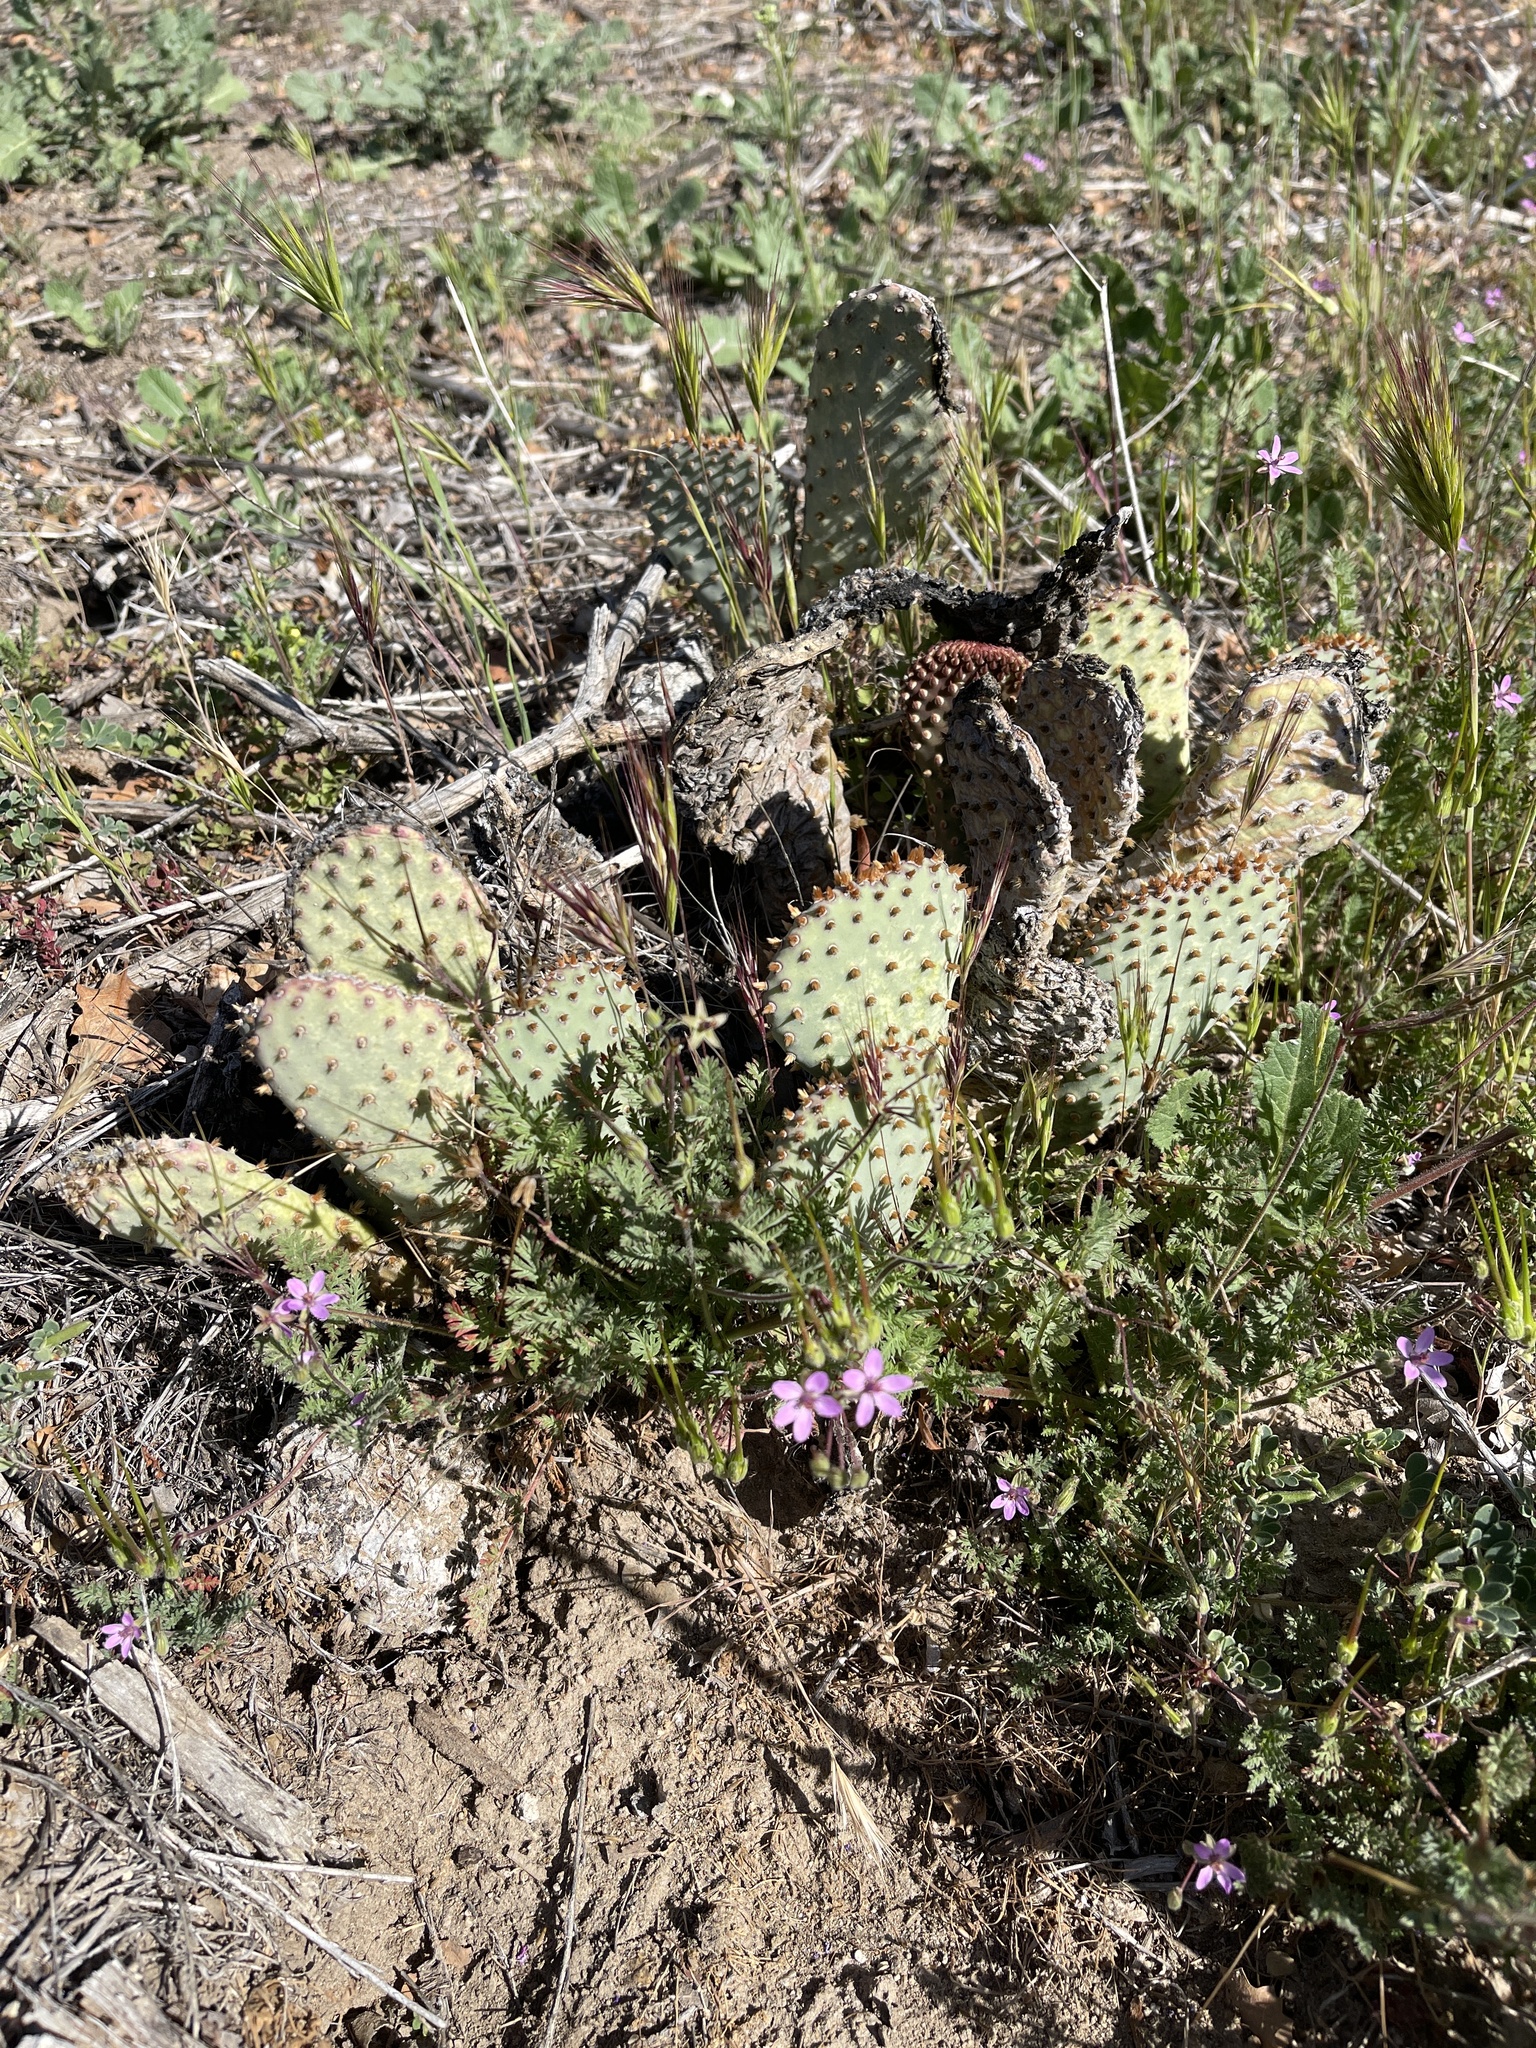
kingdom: Plantae
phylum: Tracheophyta
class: Magnoliopsida
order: Caryophyllales
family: Cactaceae
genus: Opuntia
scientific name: Opuntia basilaris
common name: Beavertail prickly-pear
